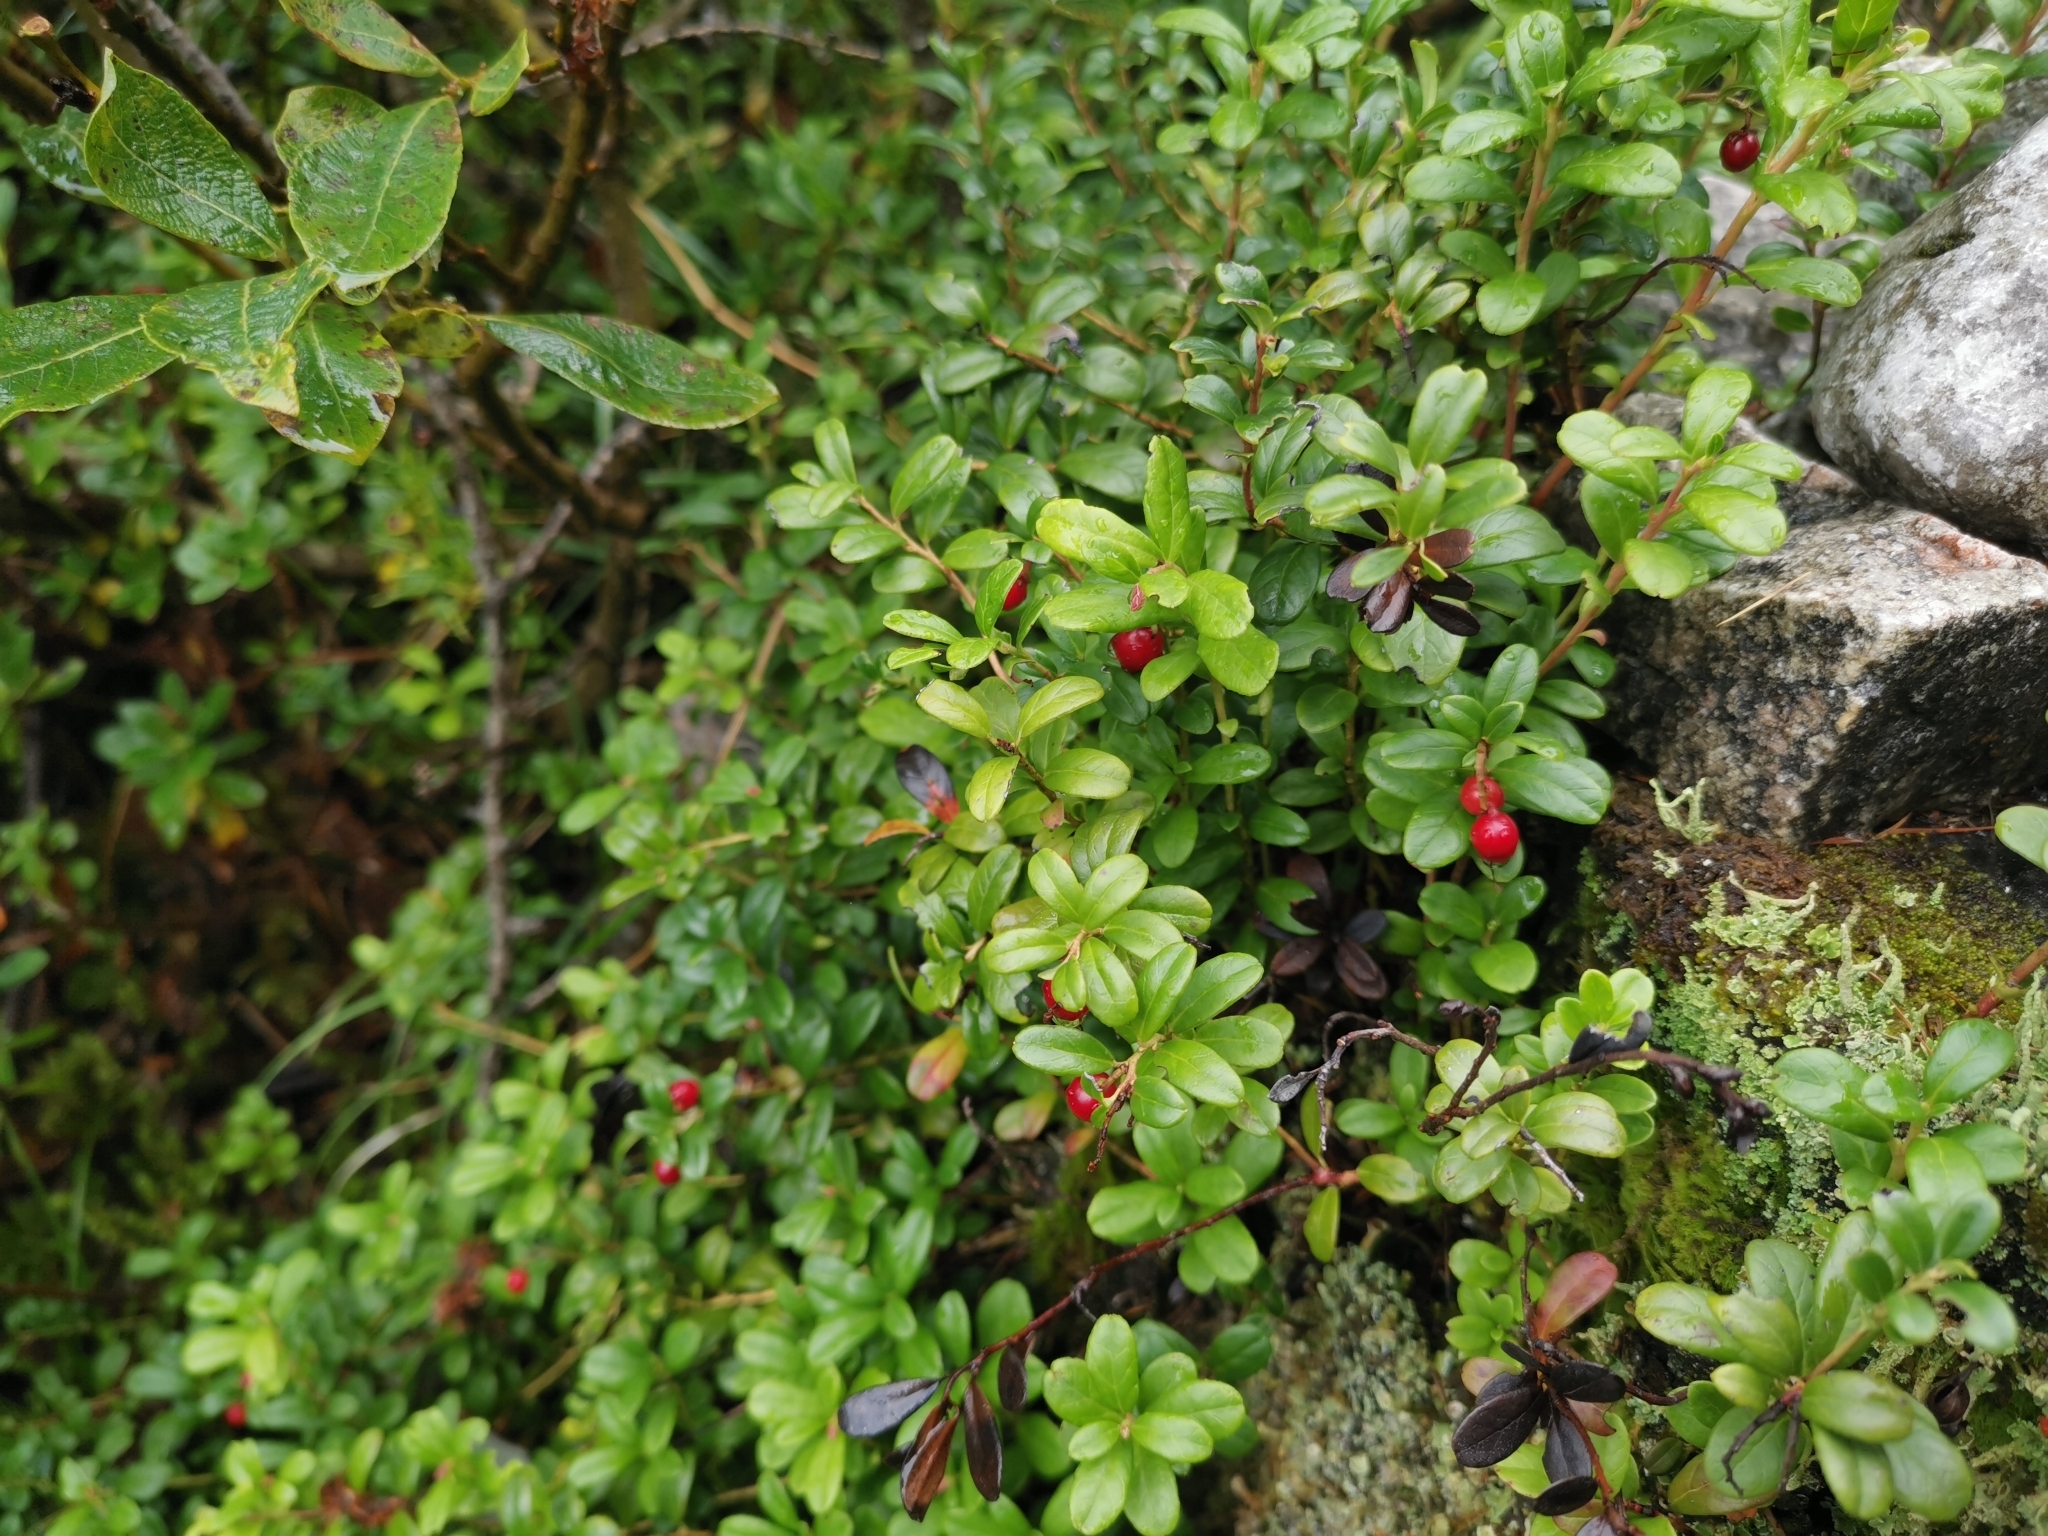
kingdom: Plantae
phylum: Tracheophyta
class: Magnoliopsida
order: Ericales
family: Ericaceae
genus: Vaccinium
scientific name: Vaccinium vitis-idaea
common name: Cowberry
